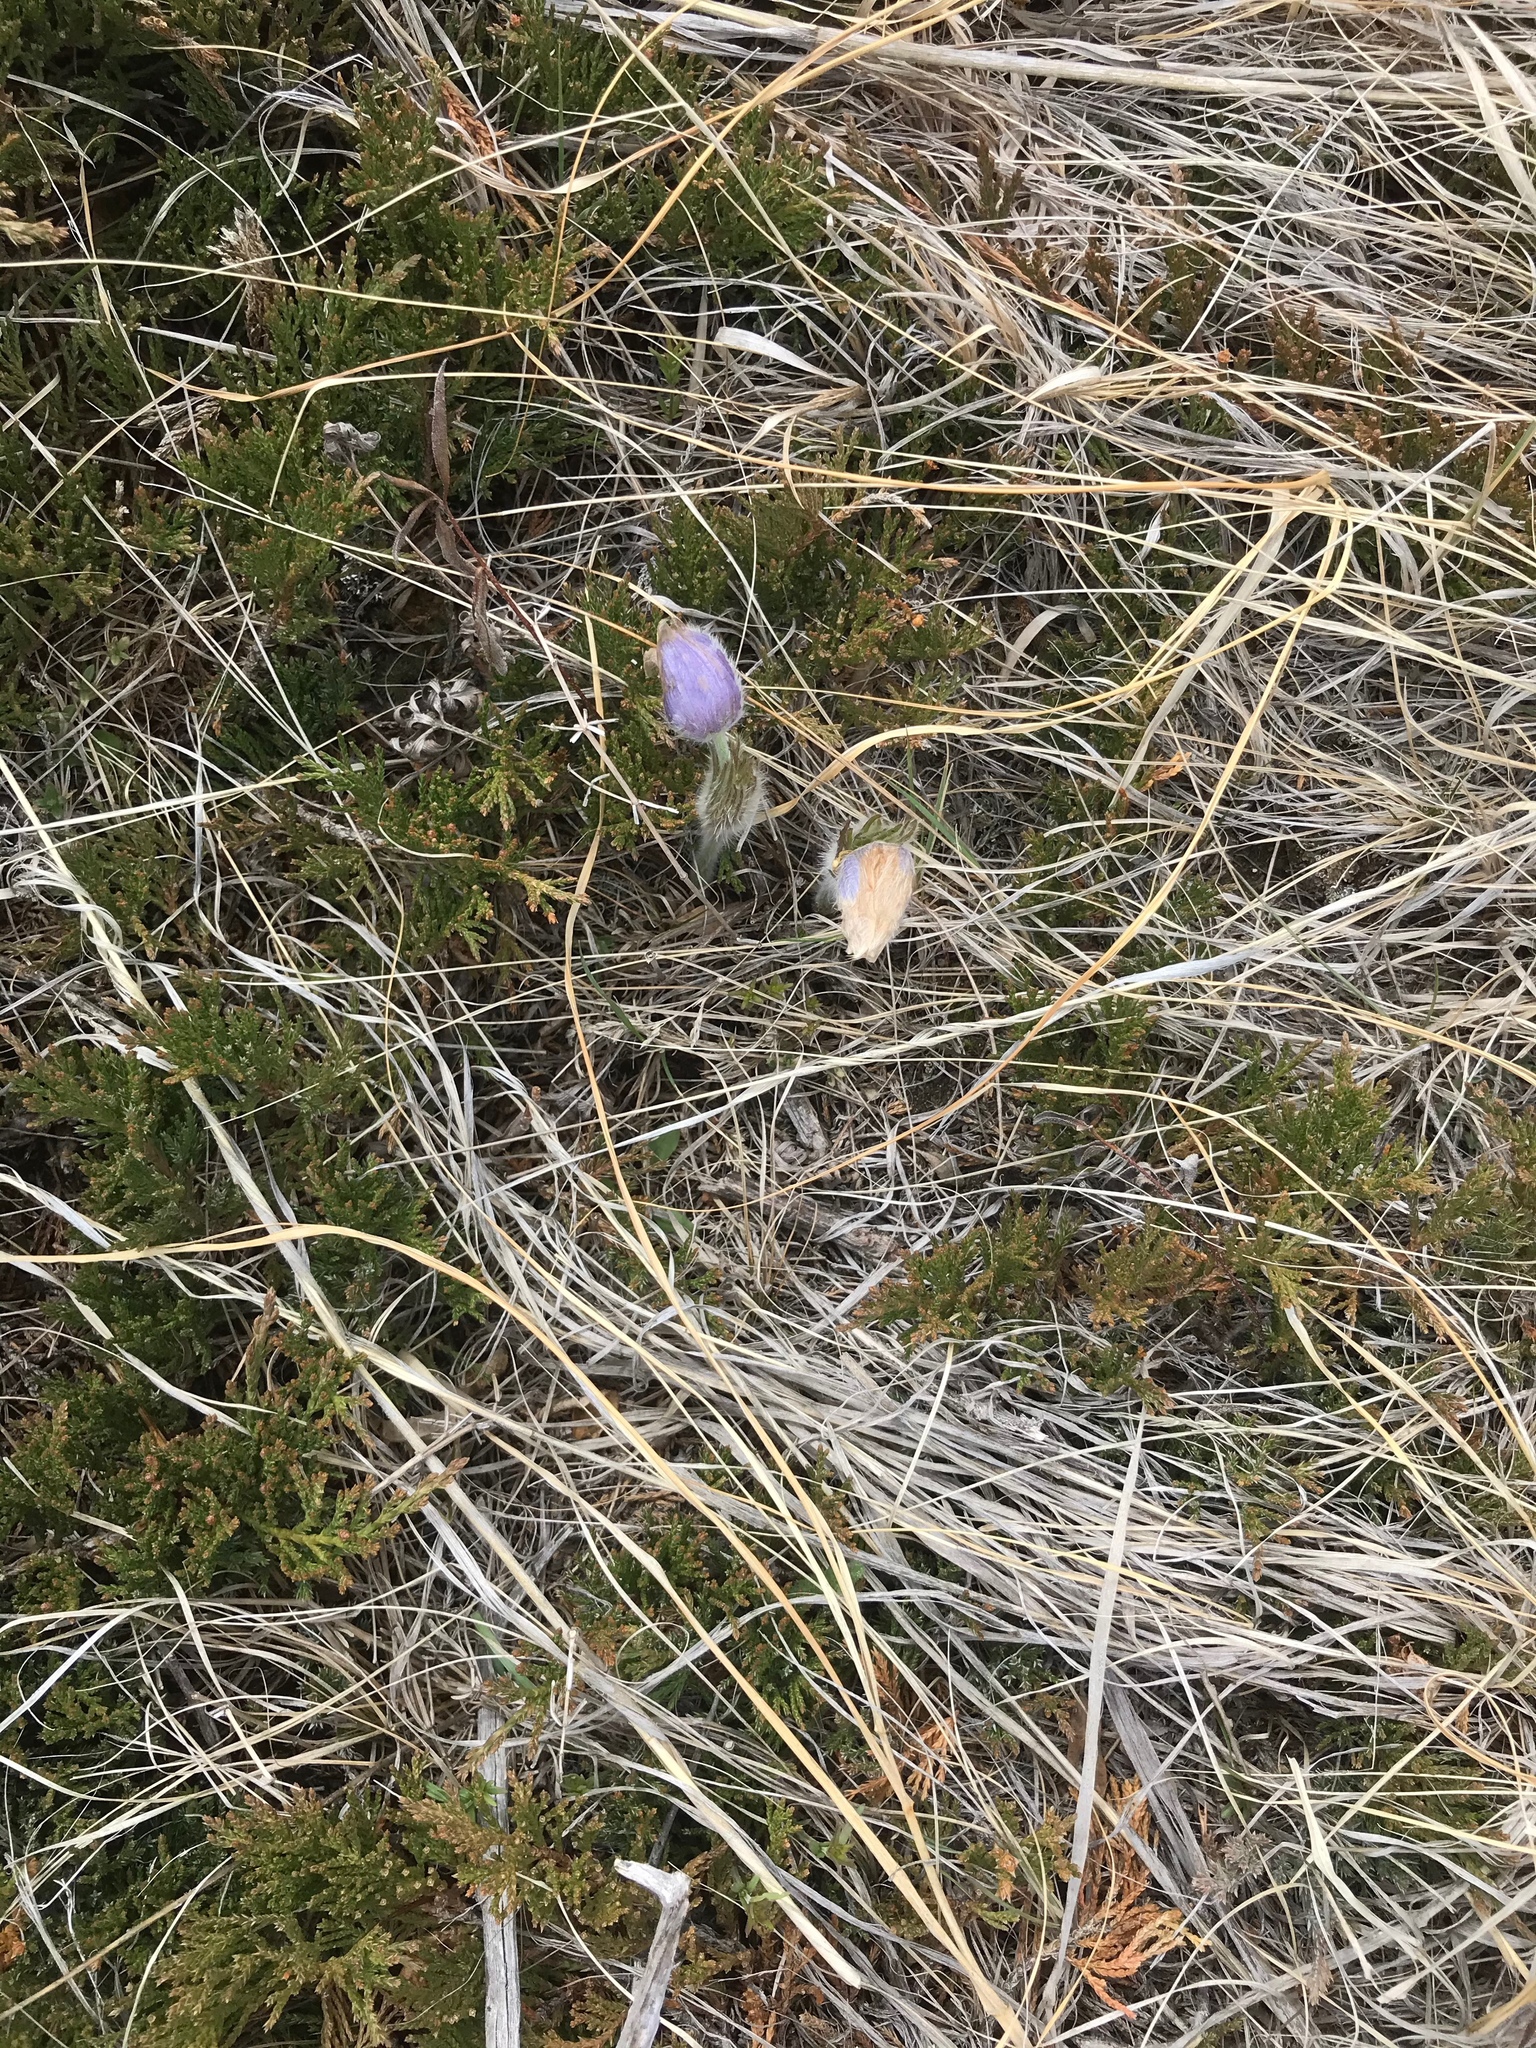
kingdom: Plantae
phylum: Tracheophyta
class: Magnoliopsida
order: Ranunculales
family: Ranunculaceae
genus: Pulsatilla
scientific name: Pulsatilla nuttalliana
